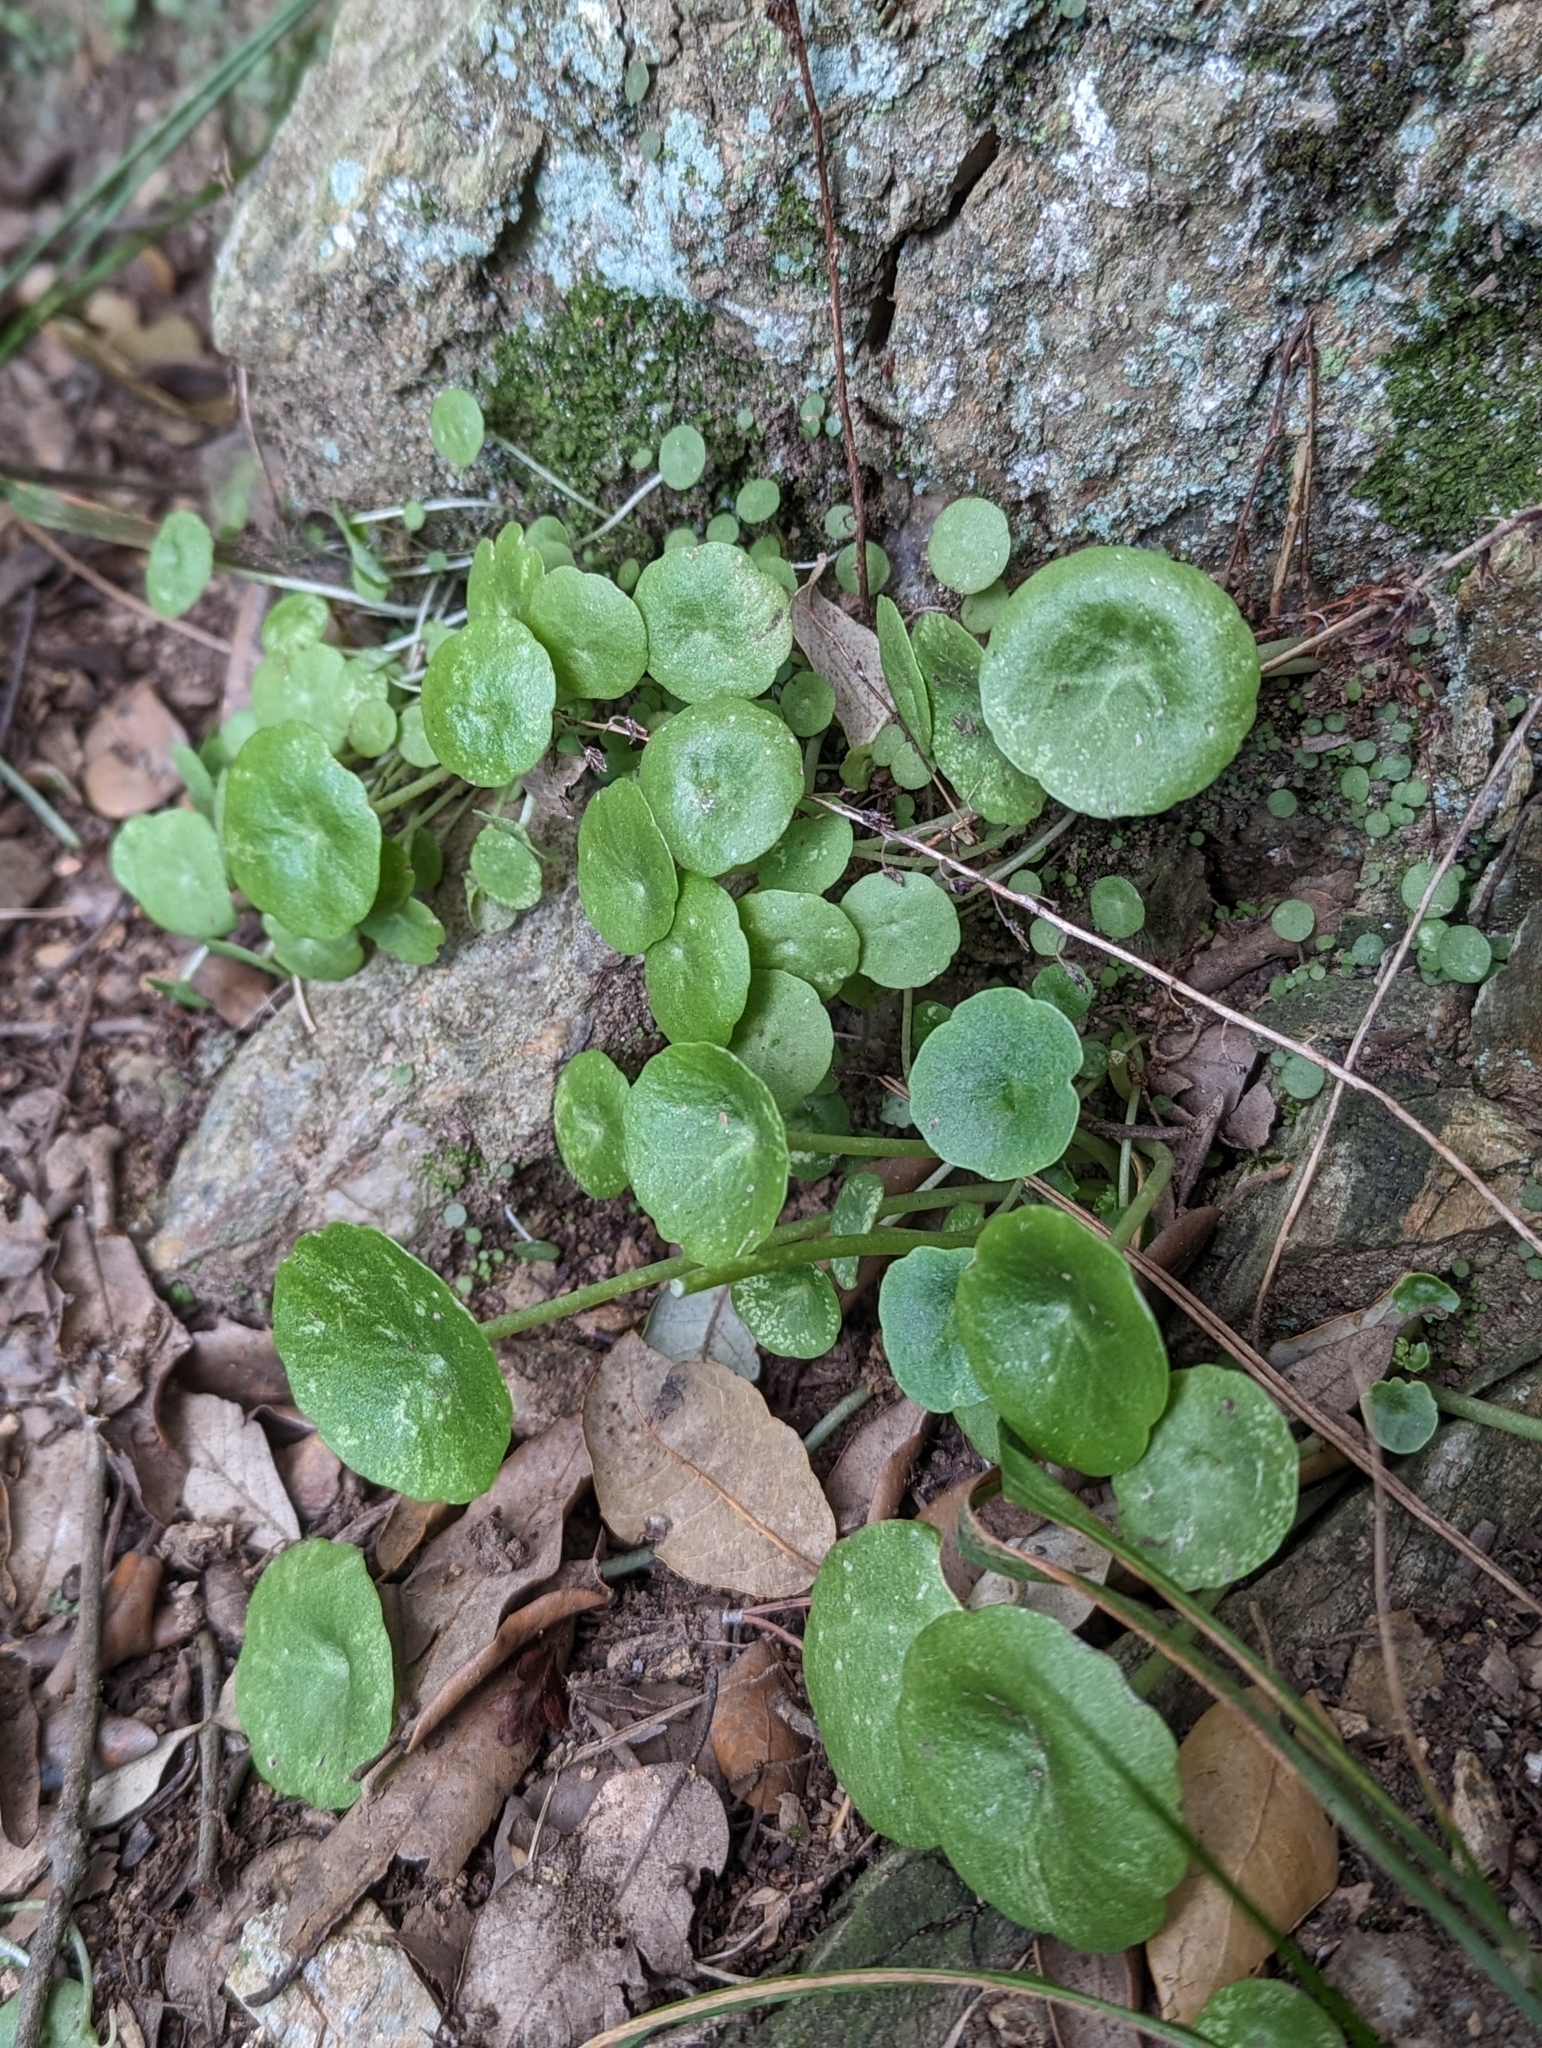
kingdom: Plantae
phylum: Tracheophyta
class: Magnoliopsida
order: Saxifragales
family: Crassulaceae
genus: Umbilicus
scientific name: Umbilicus rupestris
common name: Navelwort
